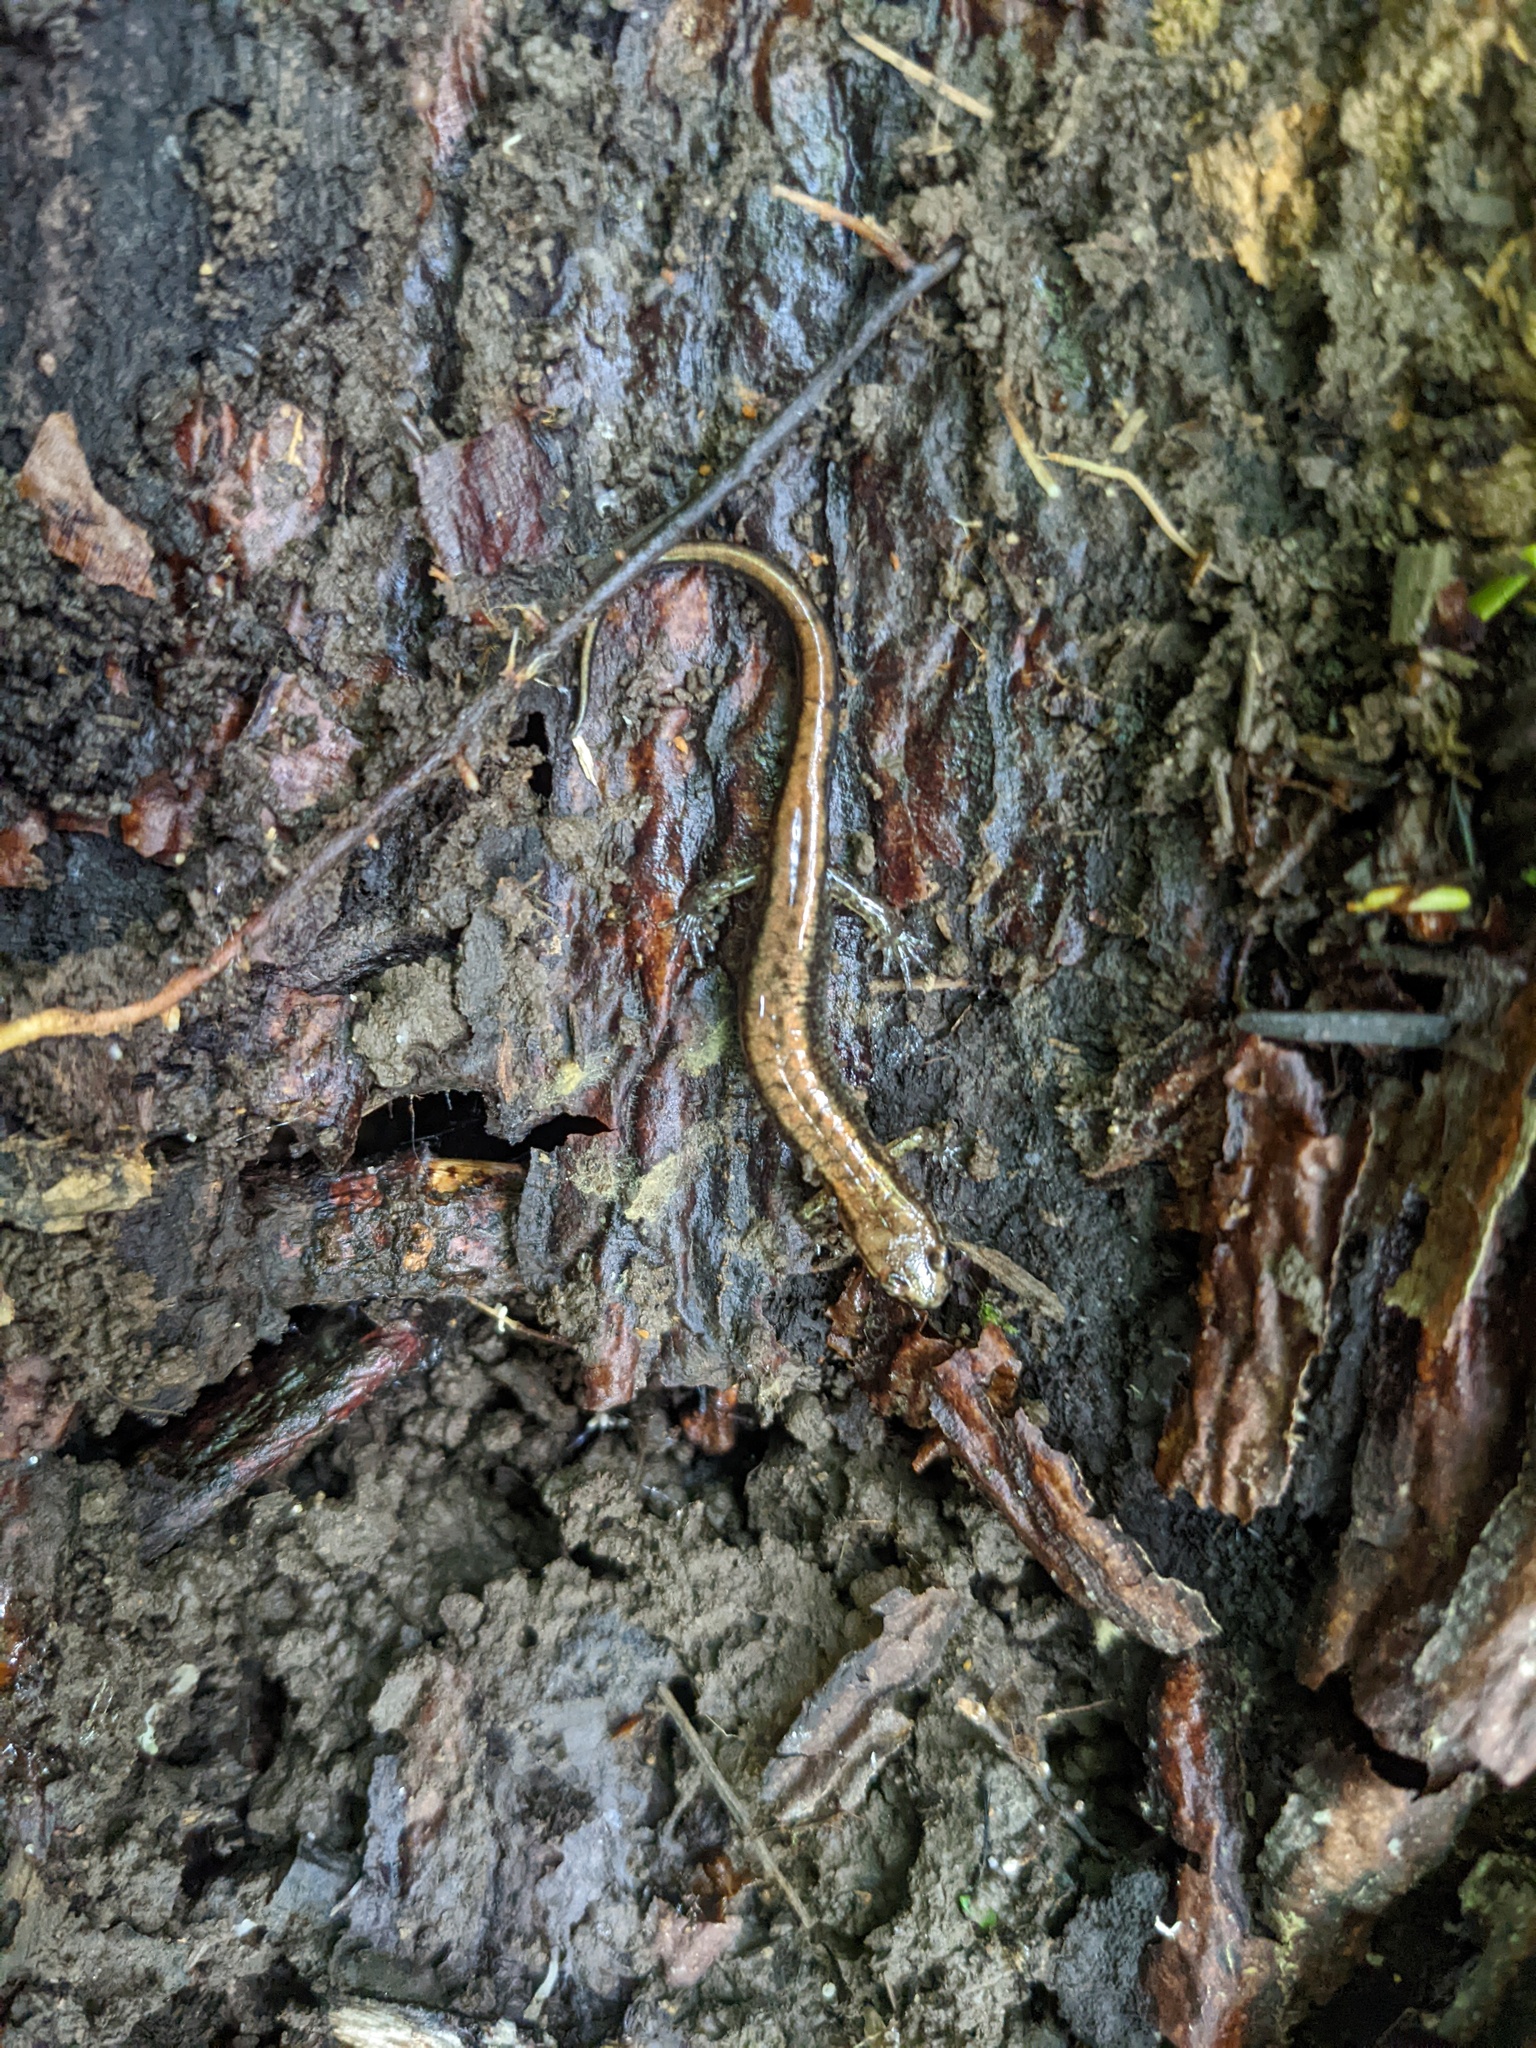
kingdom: Animalia
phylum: Chordata
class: Amphibia
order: Caudata
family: Plethodontidae
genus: Desmognathus
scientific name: Desmognathus ochrophaeus
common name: Allegheny mountain dusky salamander
